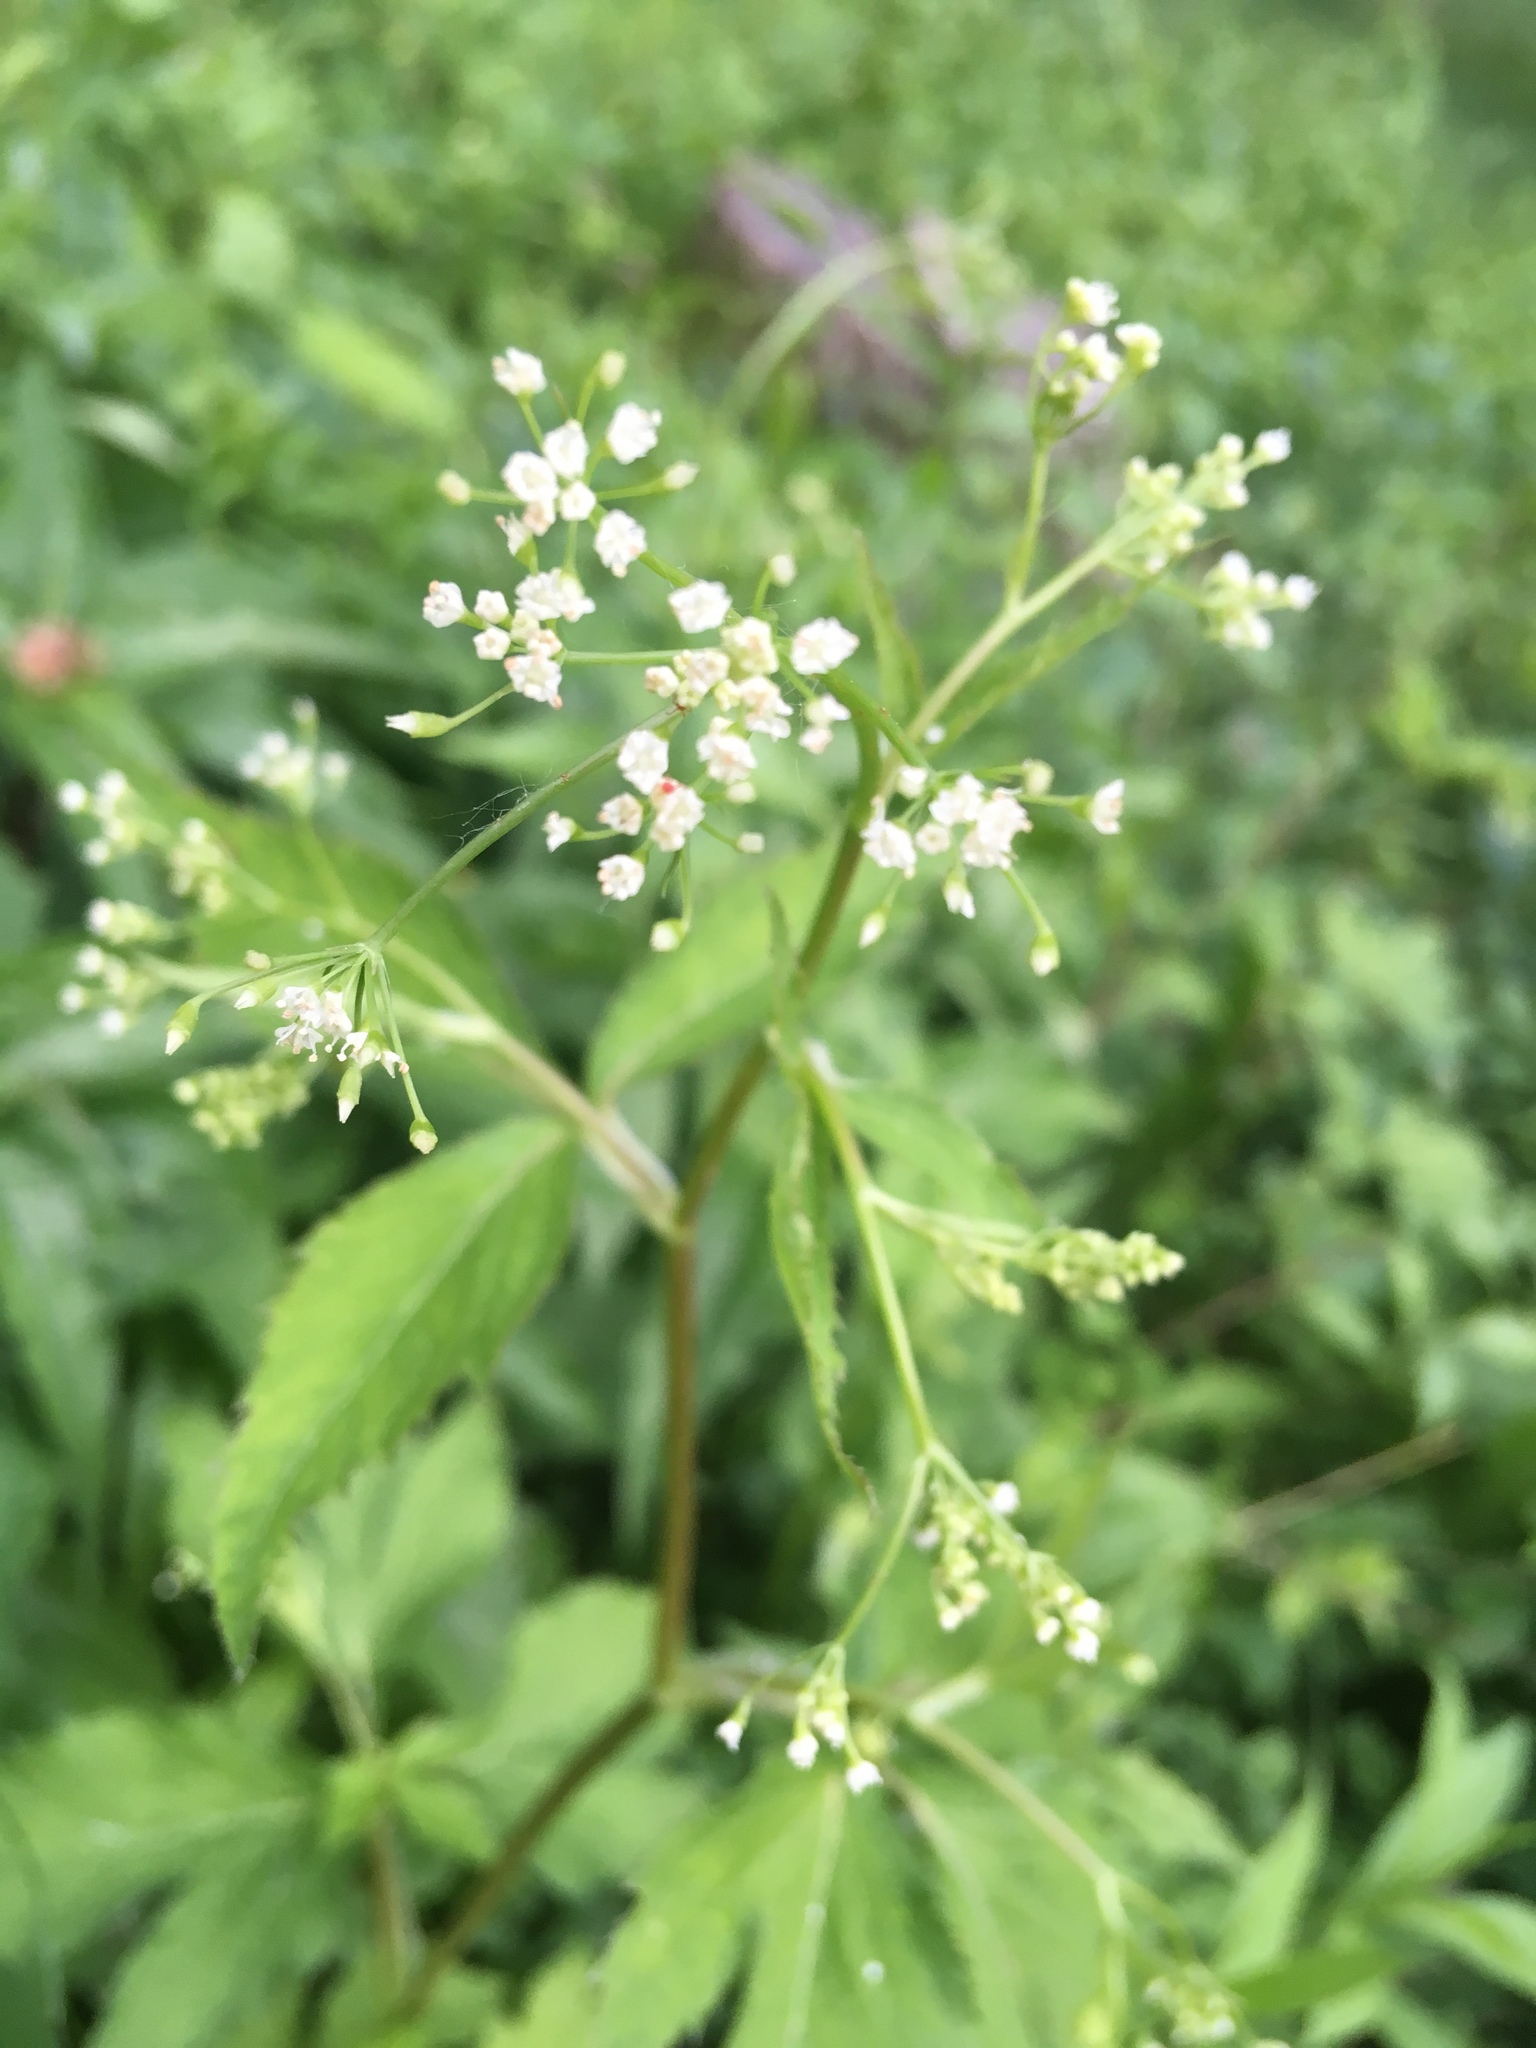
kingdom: Plantae
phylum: Tracheophyta
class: Magnoliopsida
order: Apiales
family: Apiaceae
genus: Cryptotaenia
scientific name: Cryptotaenia canadensis
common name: Honewort
